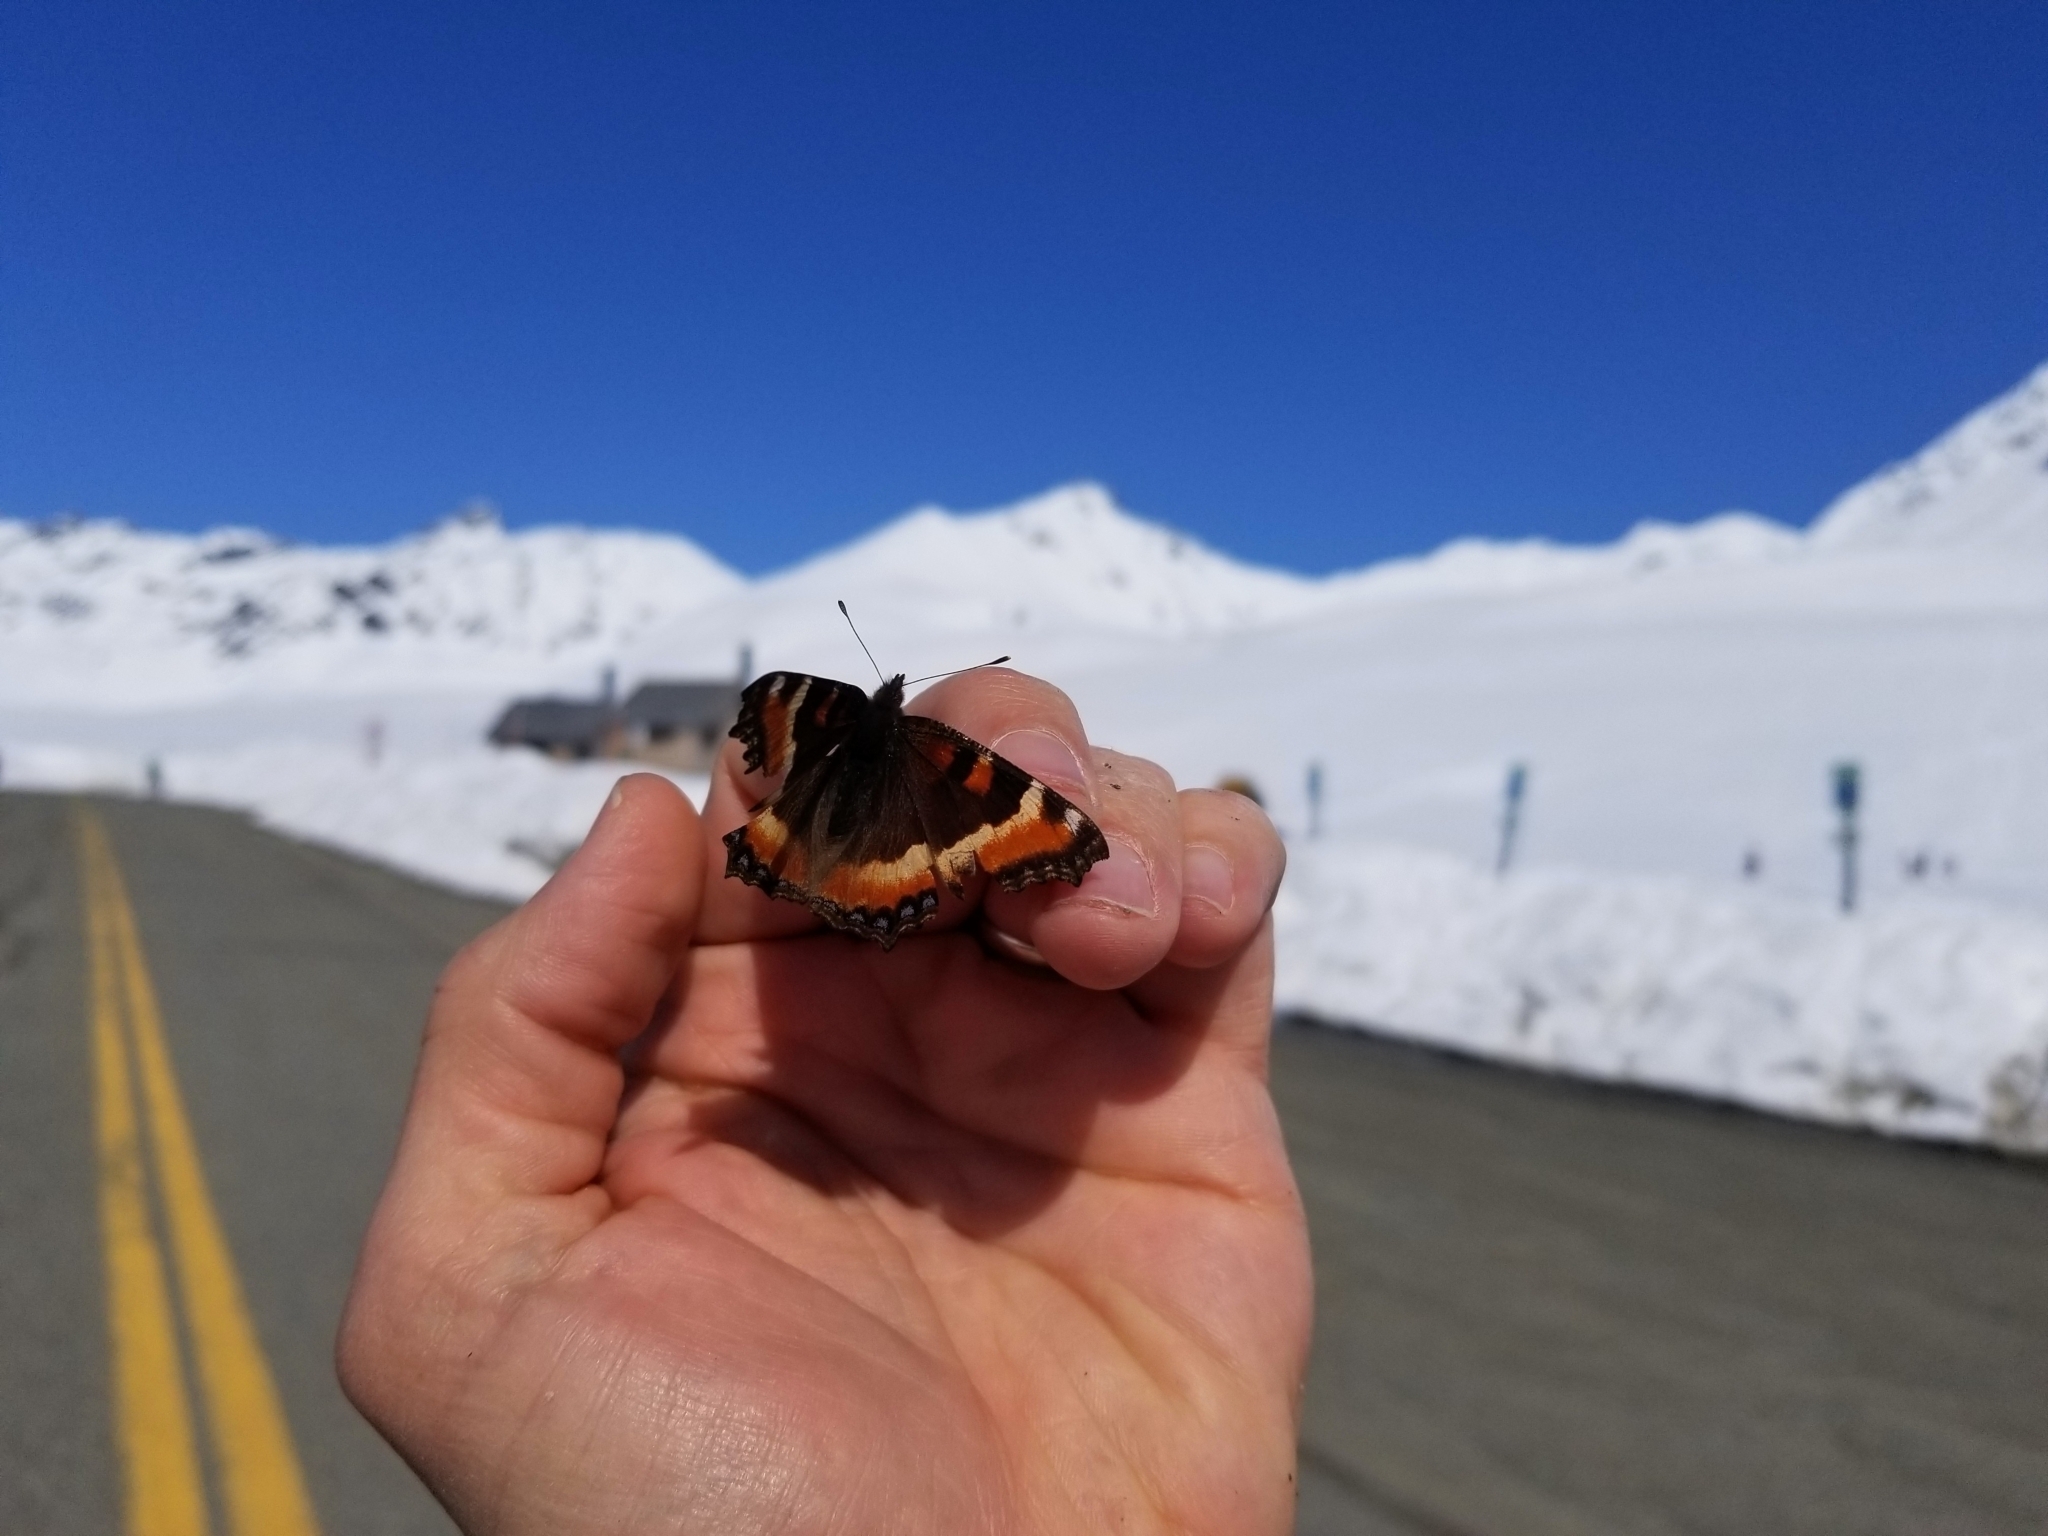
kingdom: Animalia
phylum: Arthropoda
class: Insecta
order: Lepidoptera
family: Nymphalidae
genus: Aglais
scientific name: Aglais milberti
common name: Milbert's tortoiseshell
